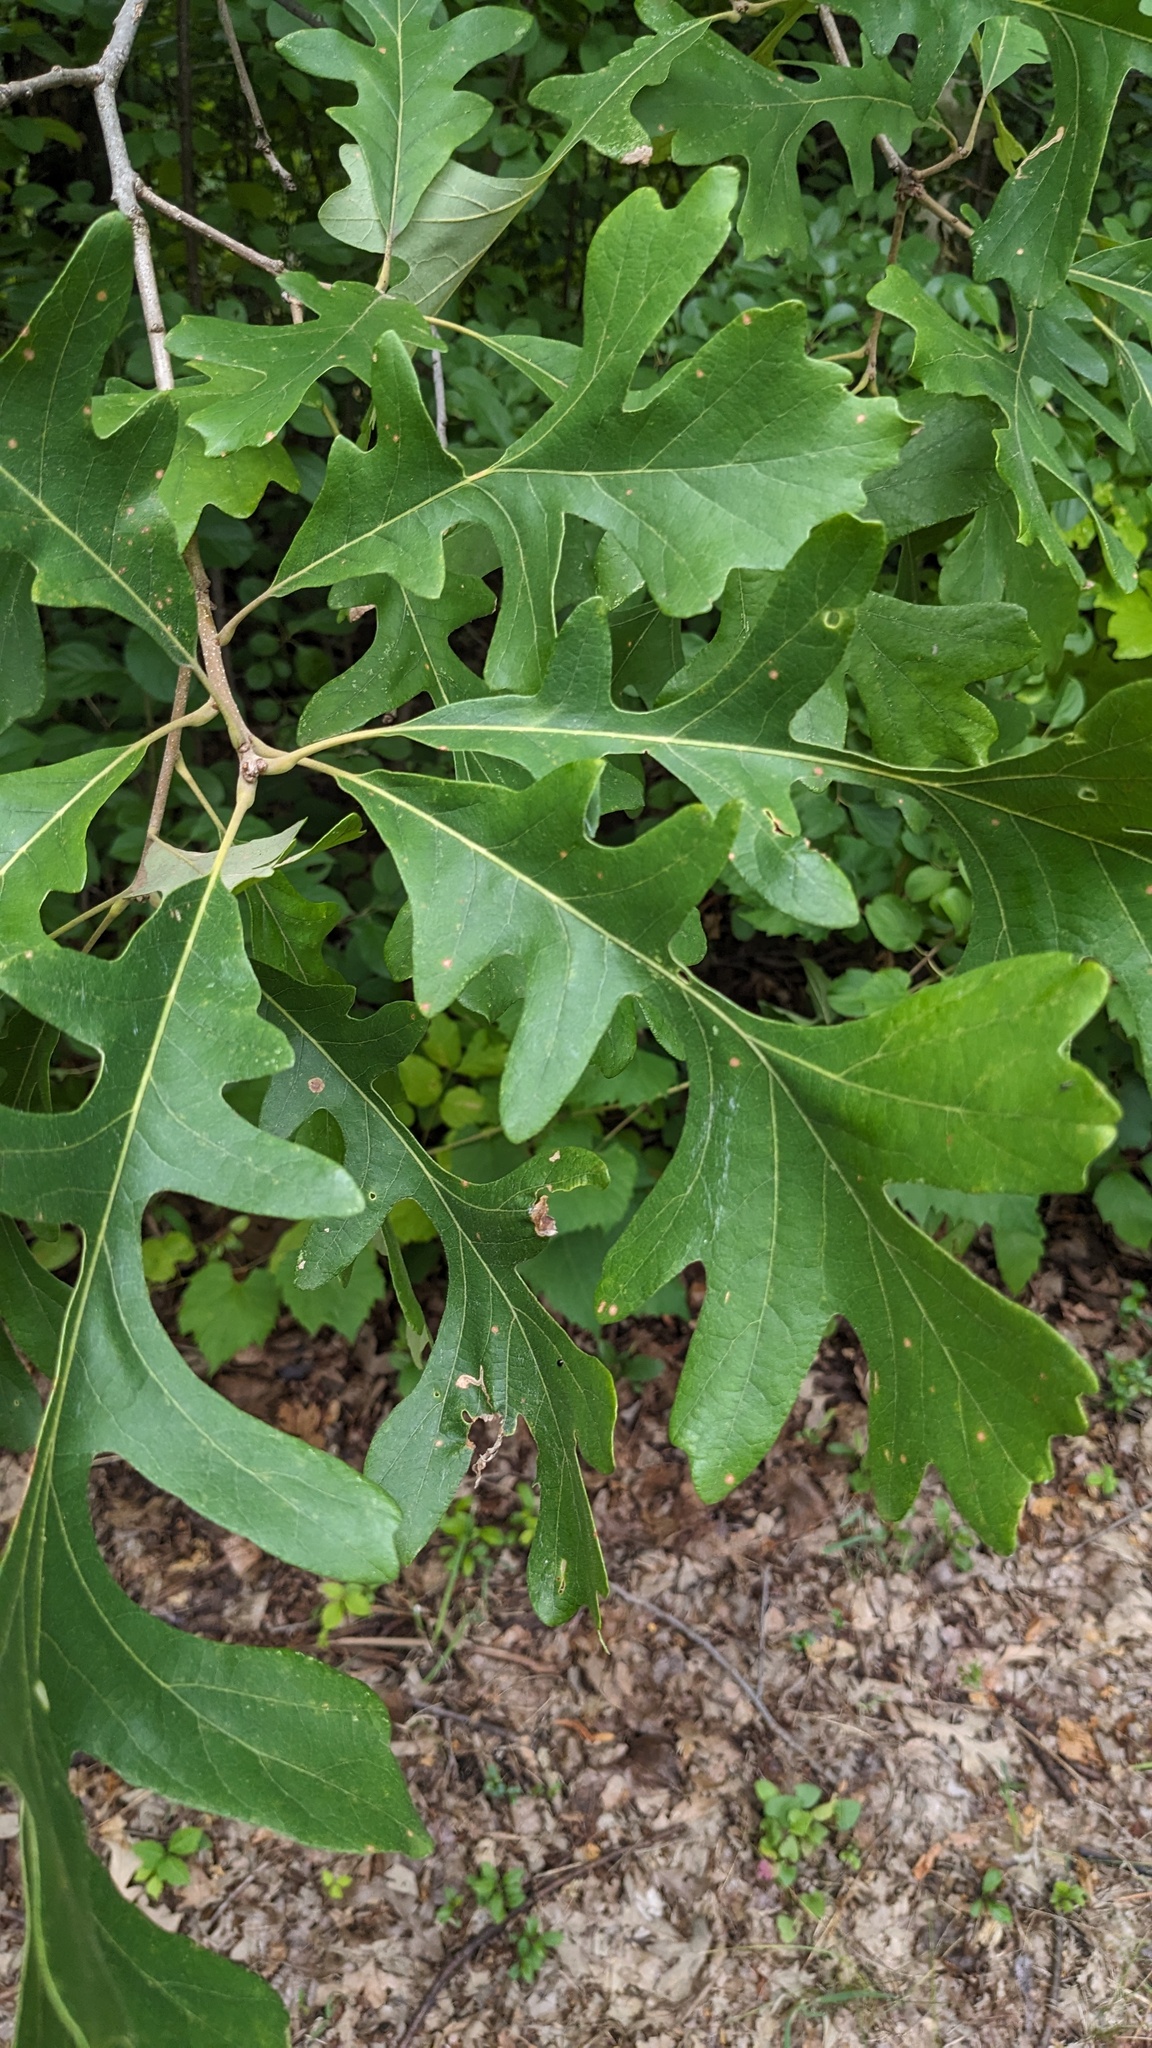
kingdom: Plantae
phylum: Tracheophyta
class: Magnoliopsida
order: Fagales
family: Fagaceae
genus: Quercus
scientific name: Quercus macrocarpa
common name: Bur oak
